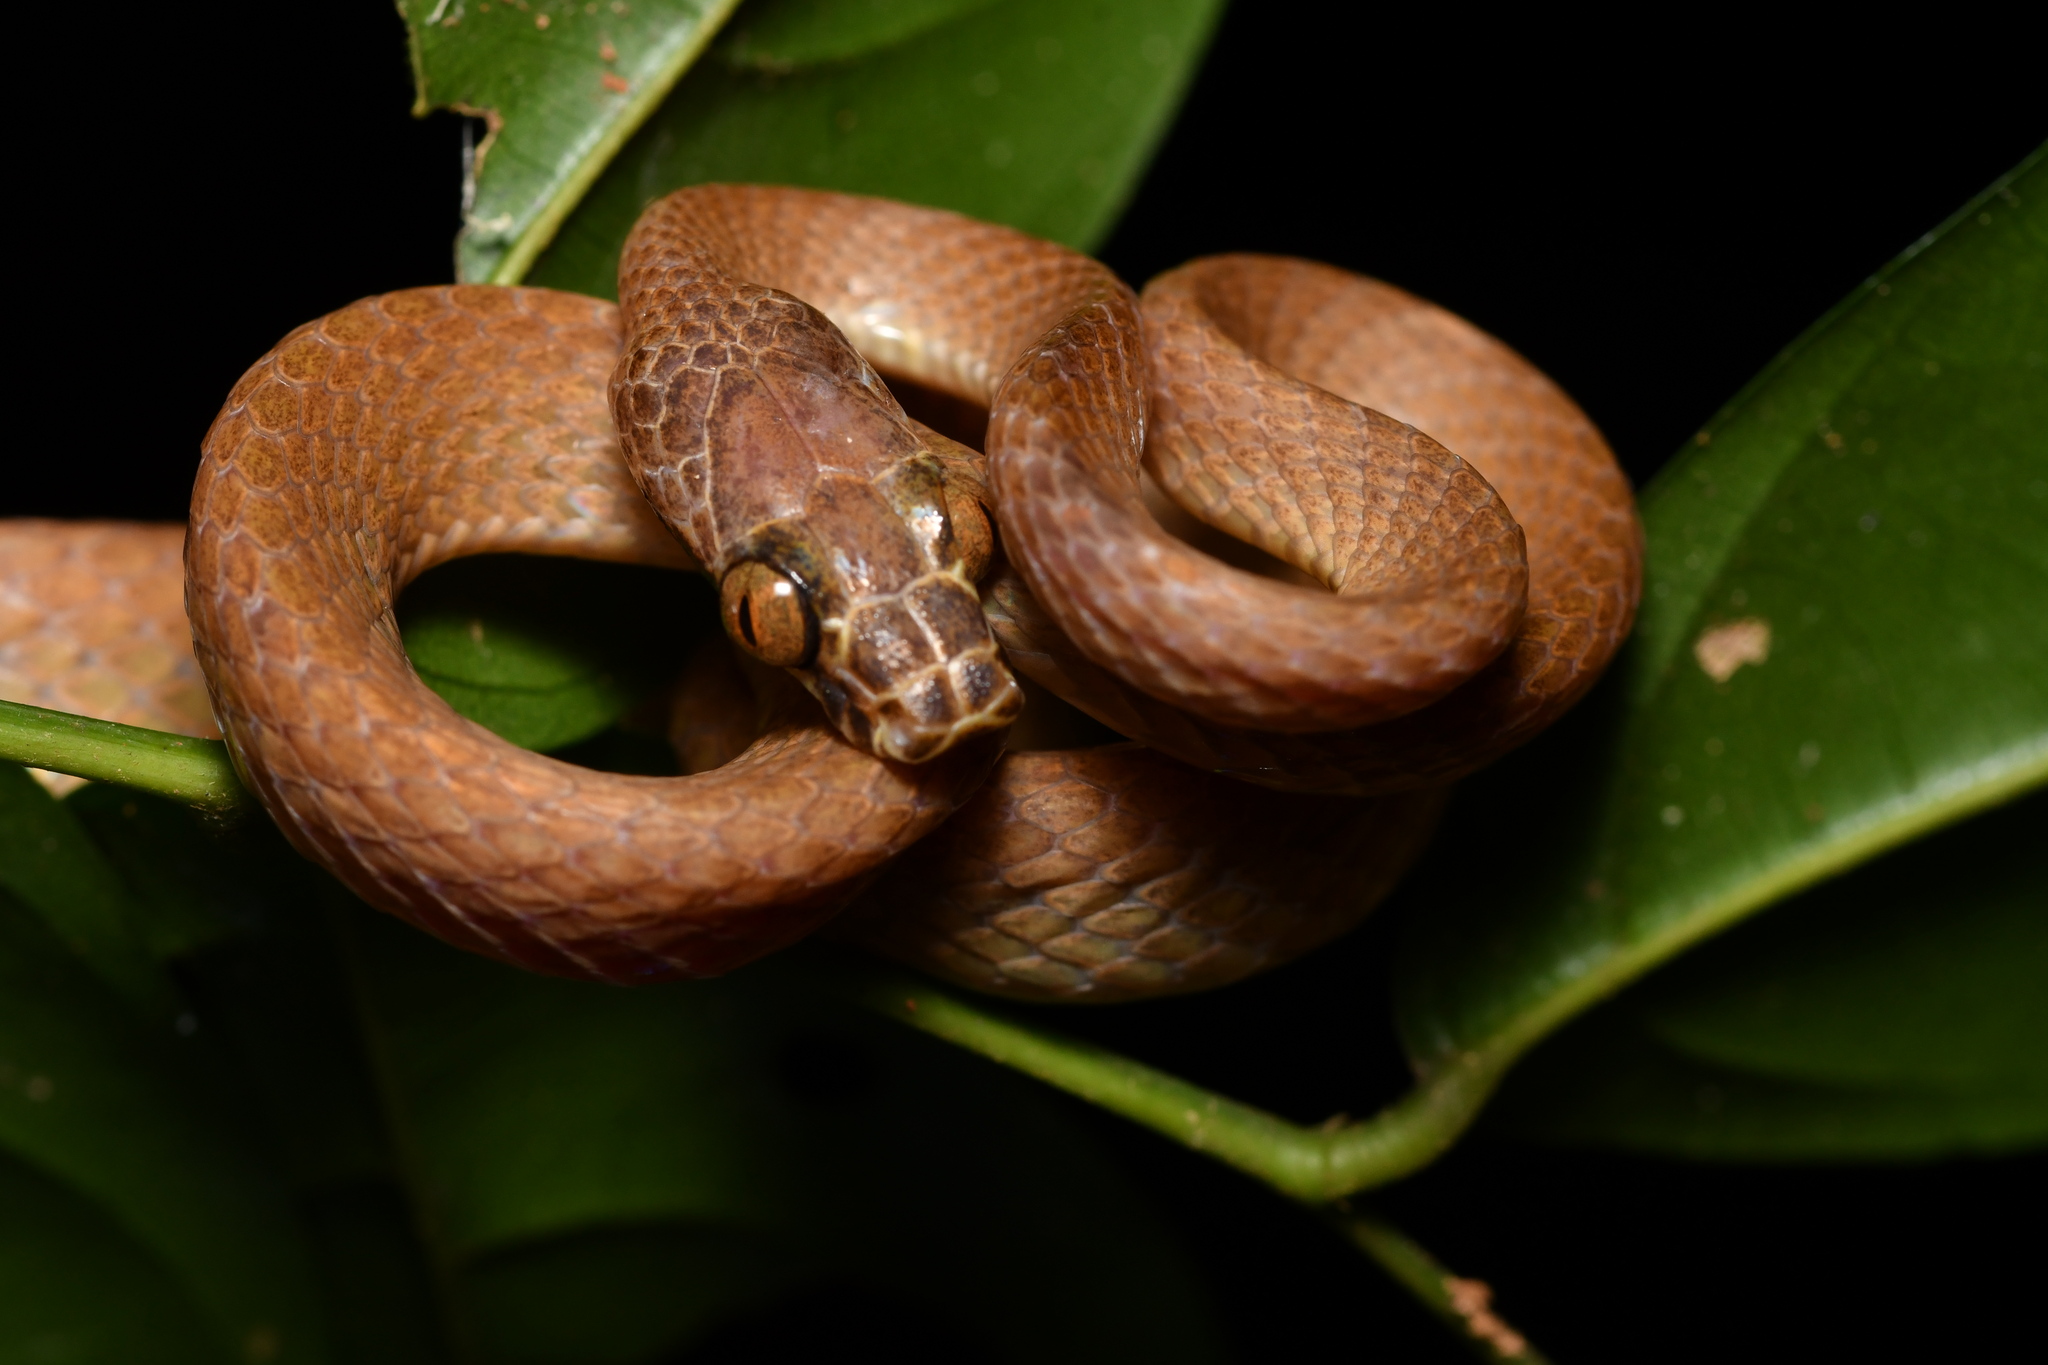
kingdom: Animalia
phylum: Chordata
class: Squamata
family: Lamprophiidae
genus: Hormonotus
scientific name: Hormonotus modestus
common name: Uganda house snake
